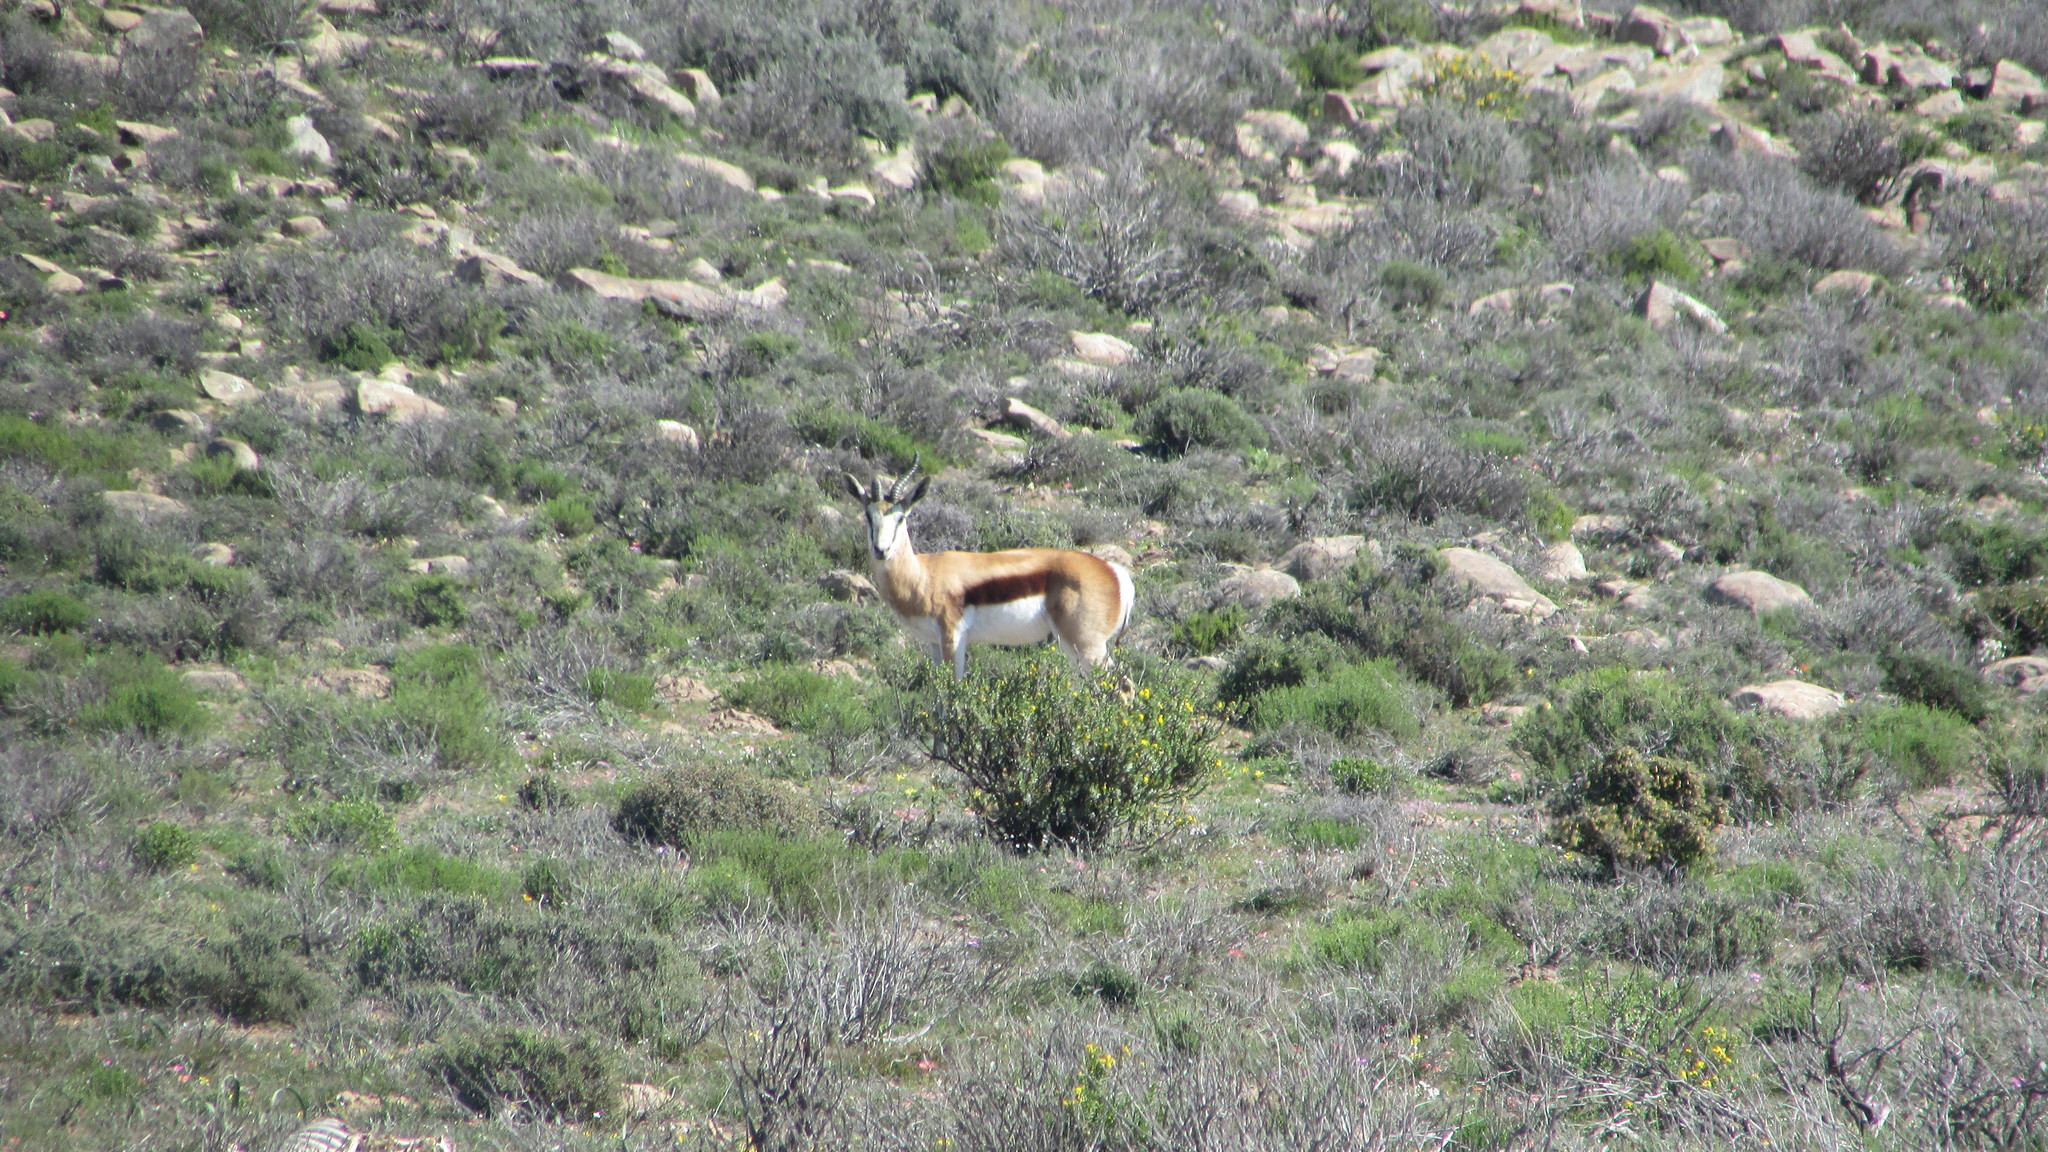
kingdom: Animalia
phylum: Chordata
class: Mammalia
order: Artiodactyla
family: Bovidae
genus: Antidorcas
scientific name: Antidorcas marsupialis
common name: Springbok
